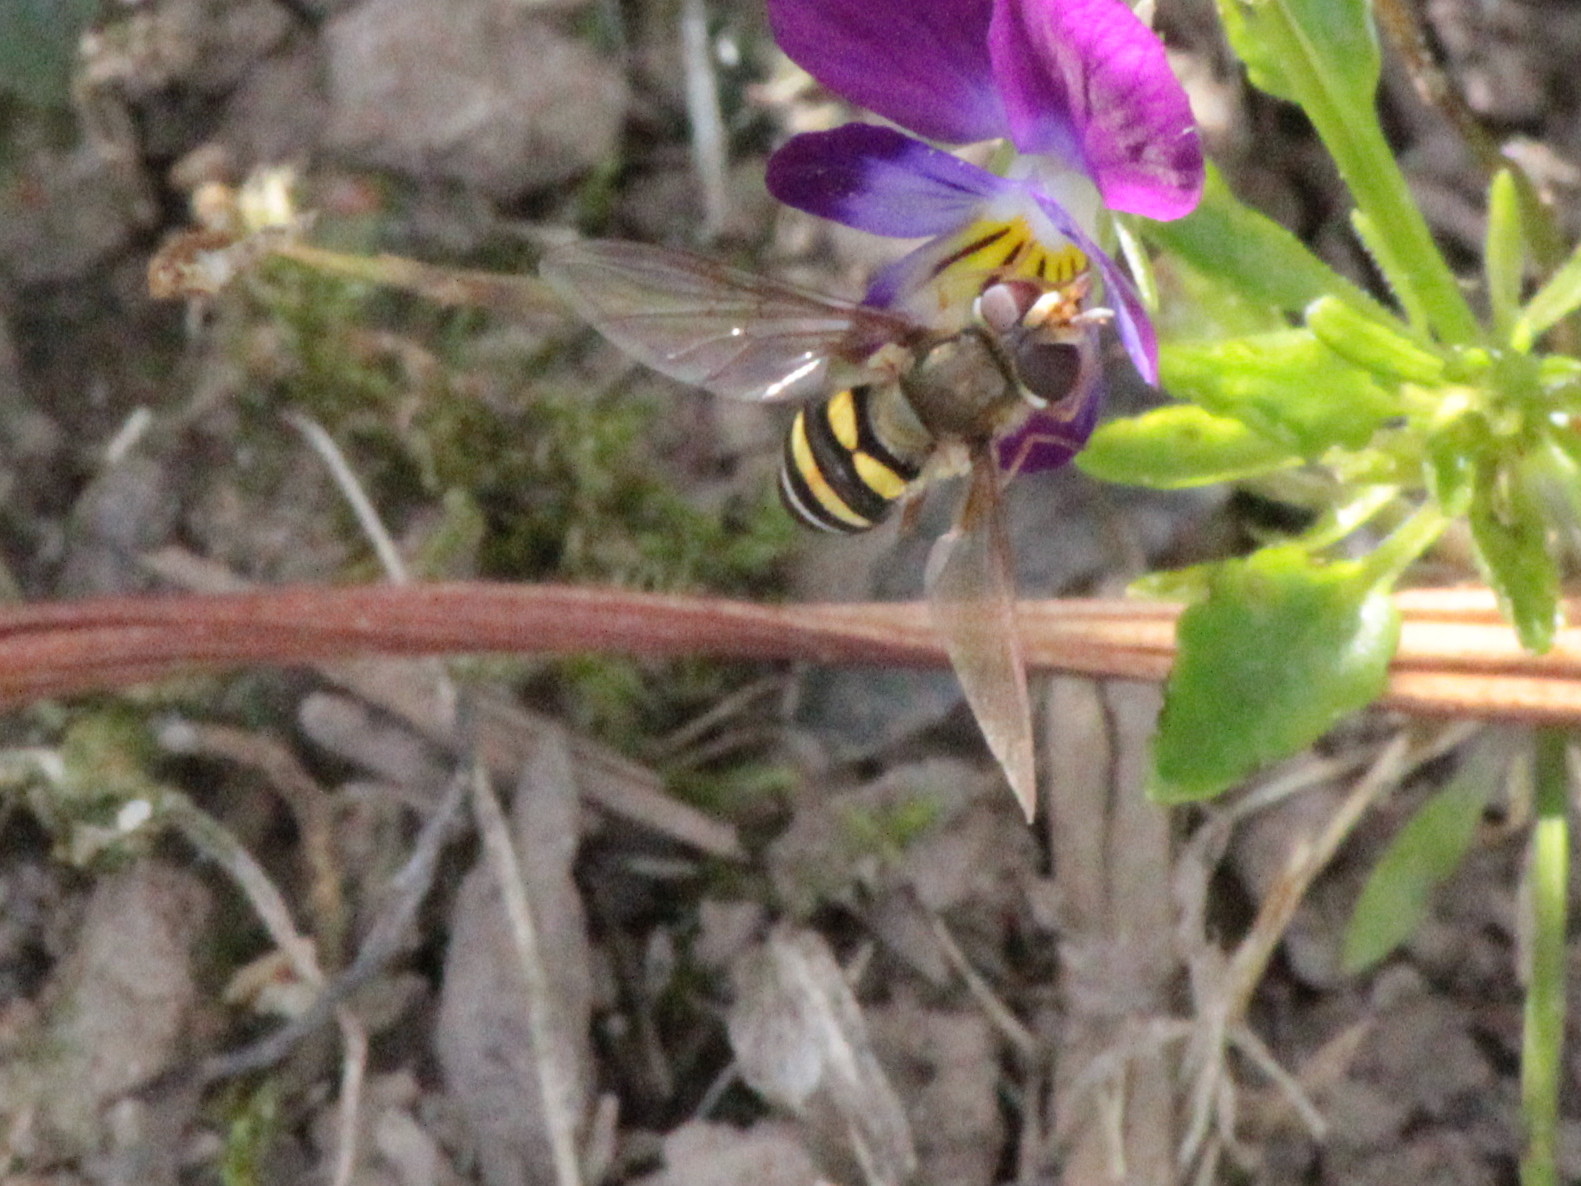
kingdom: Animalia
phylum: Arthropoda
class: Insecta
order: Diptera
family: Syrphidae
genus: Eupeodes
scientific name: Eupeodes
